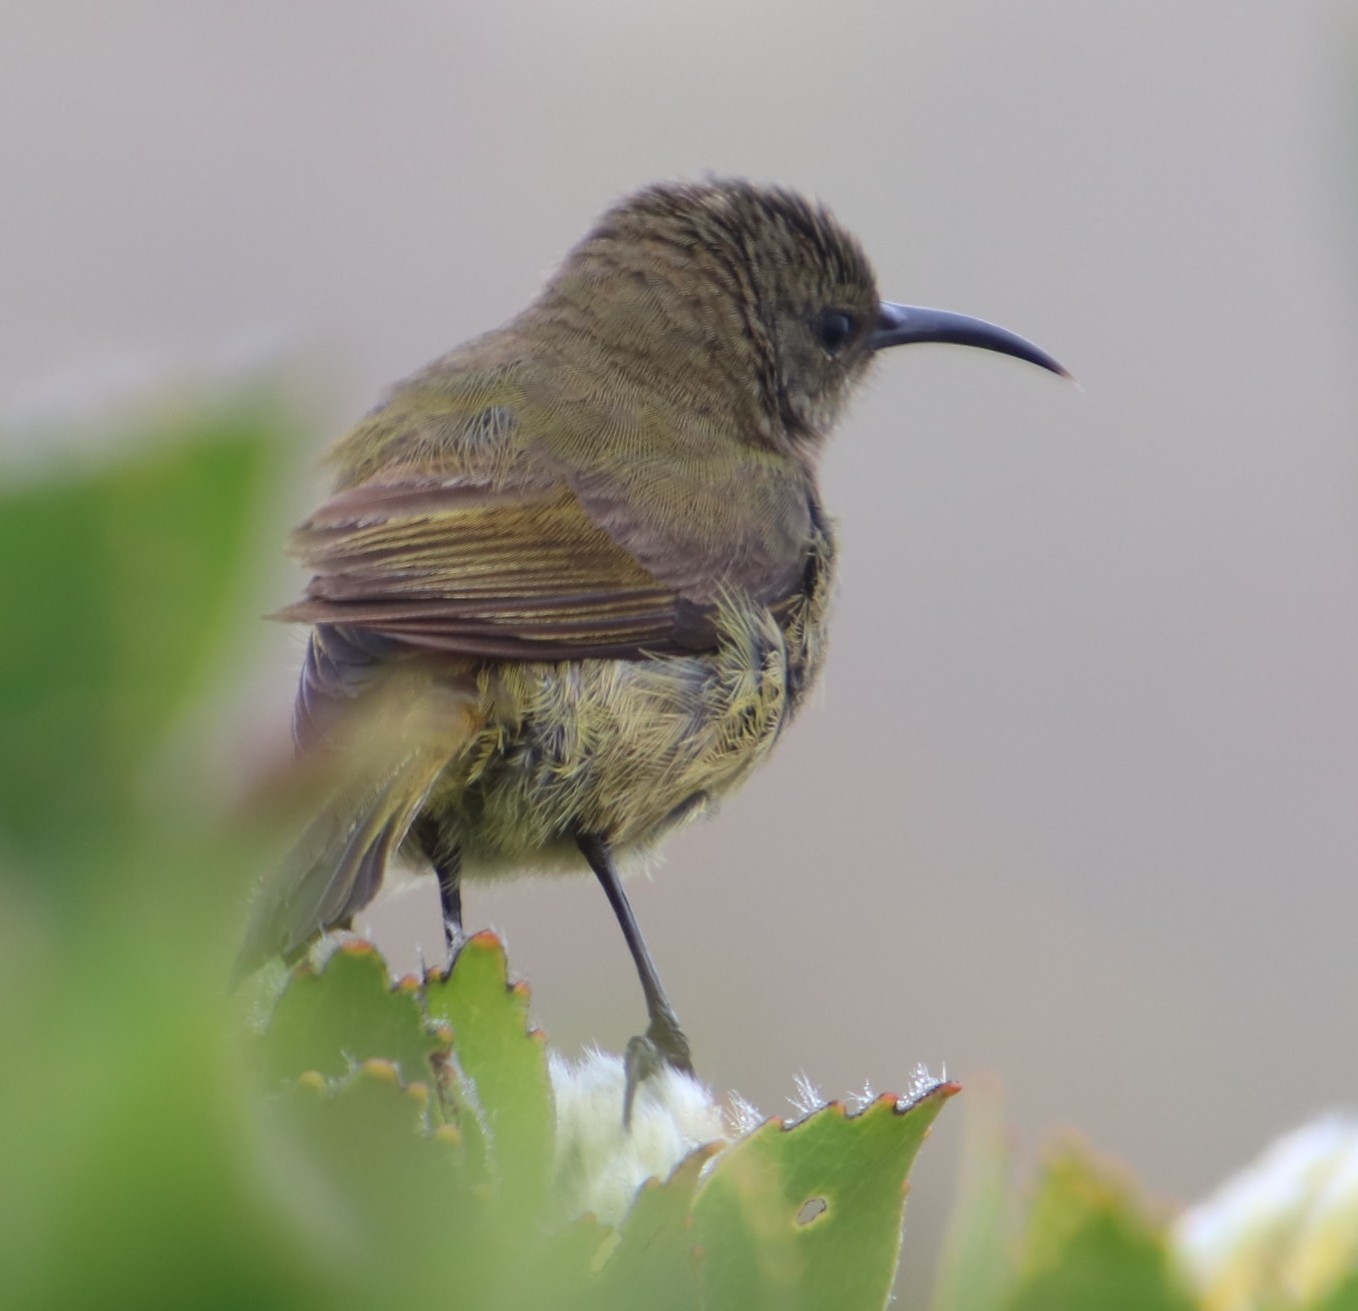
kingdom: Animalia
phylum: Chordata
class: Aves
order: Passeriformes
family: Nectariniidae
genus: Anthobaphes
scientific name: Anthobaphes violacea
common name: Orange-breasted sunbird
